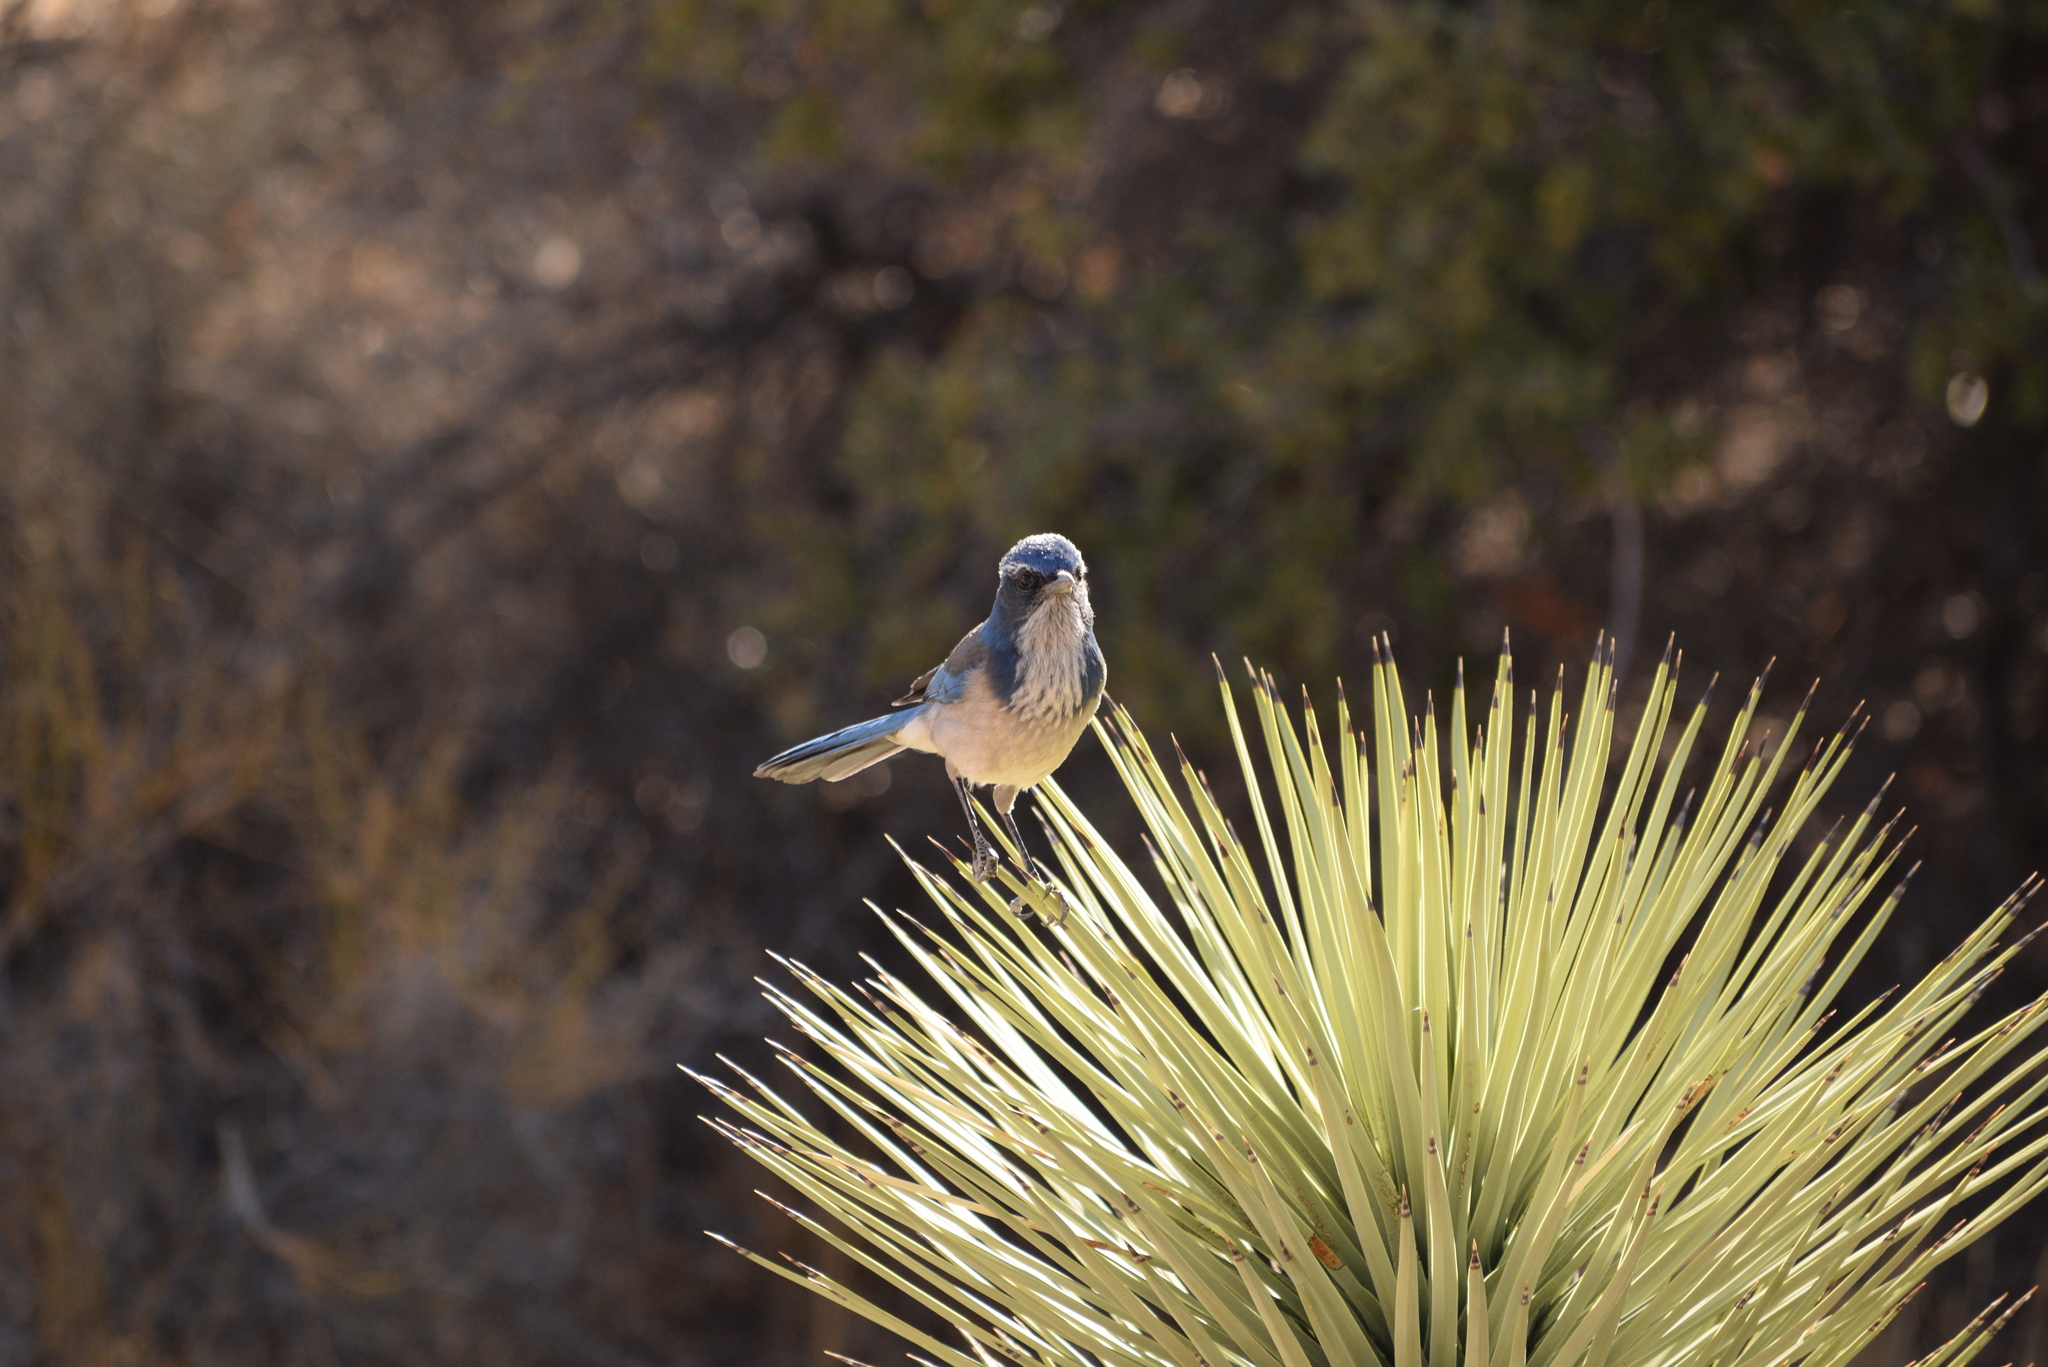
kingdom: Animalia
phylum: Chordata
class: Aves
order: Passeriformes
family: Corvidae
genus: Aphelocoma
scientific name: Aphelocoma californica
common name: California scrub-jay
